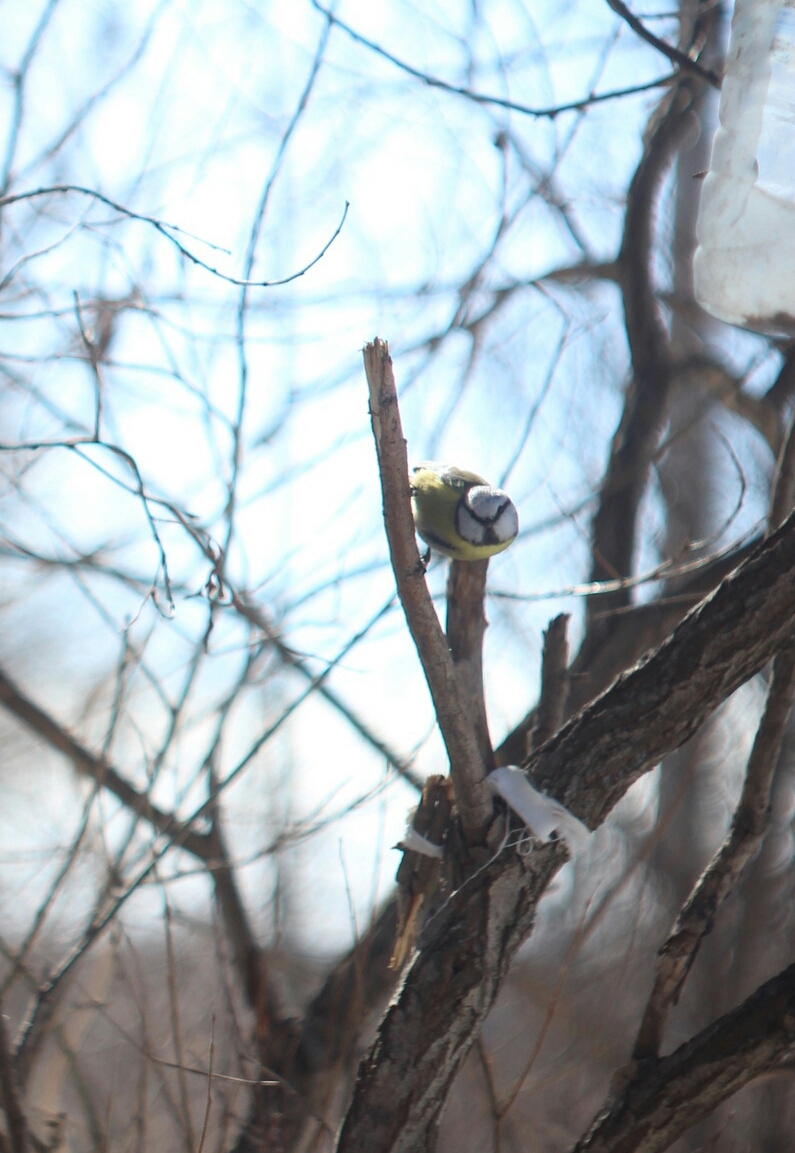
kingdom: Animalia
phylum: Chordata
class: Aves
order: Passeriformes
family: Paridae
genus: Cyanistes
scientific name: Cyanistes caeruleus
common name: Eurasian blue tit
